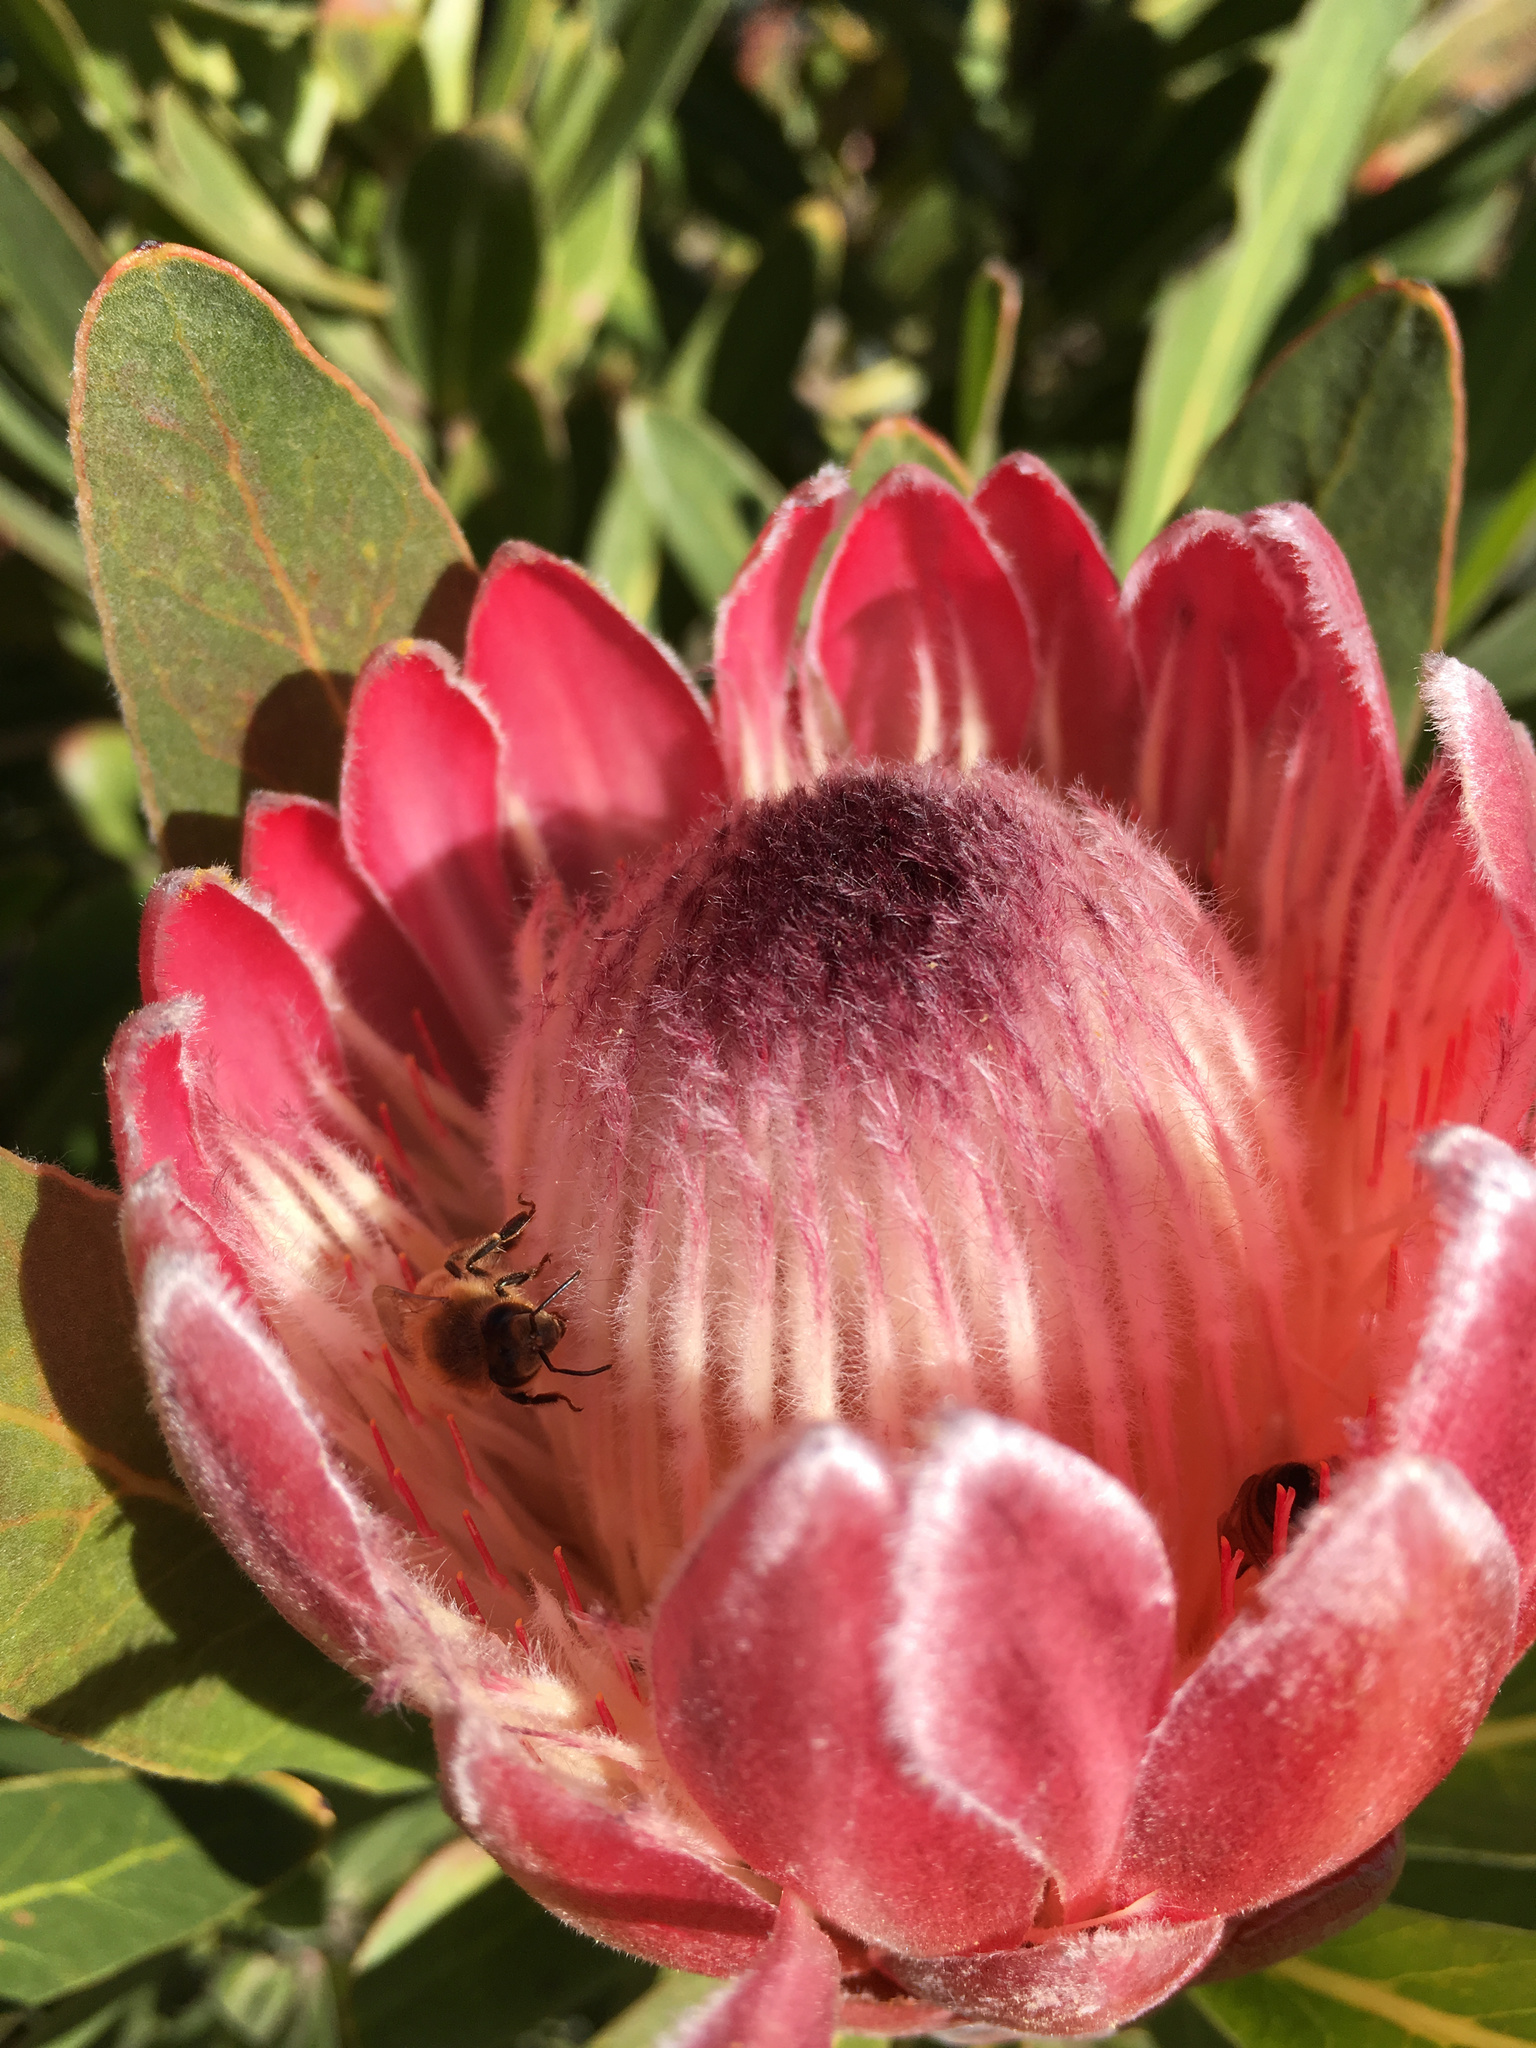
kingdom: Animalia
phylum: Arthropoda
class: Insecta
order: Hymenoptera
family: Apidae
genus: Apis
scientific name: Apis mellifera
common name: Honey bee
